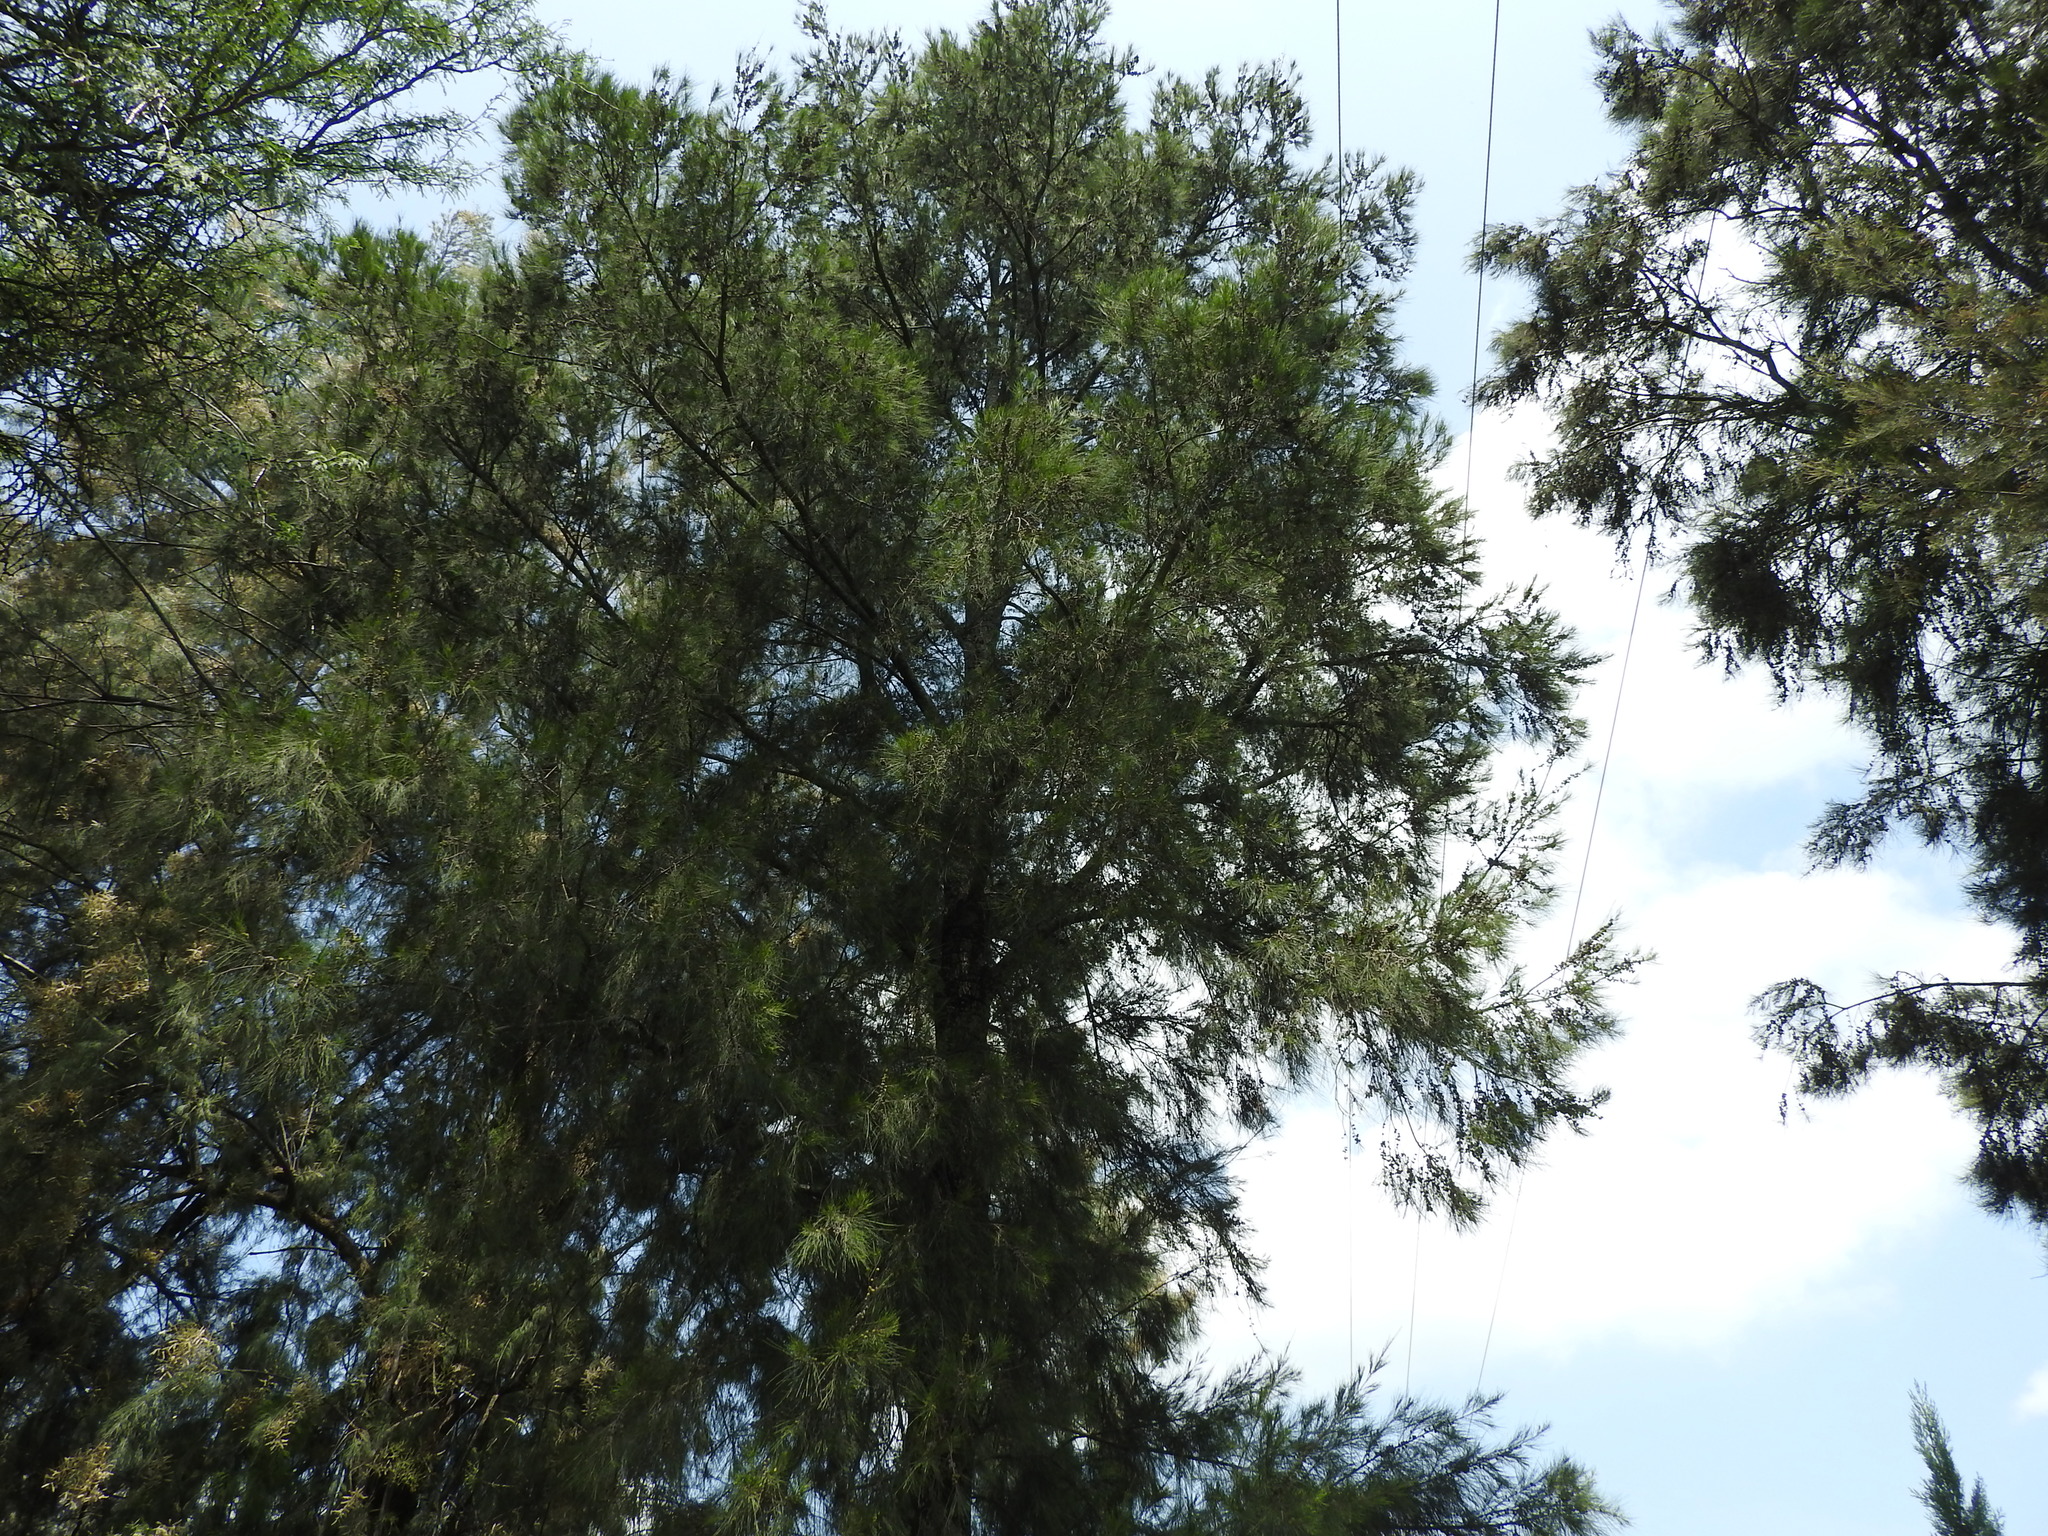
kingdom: Plantae
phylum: Tracheophyta
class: Magnoliopsida
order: Fagales
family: Casuarinaceae
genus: Casuarina
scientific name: Casuarina equisetifolia
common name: Beach sheoak
